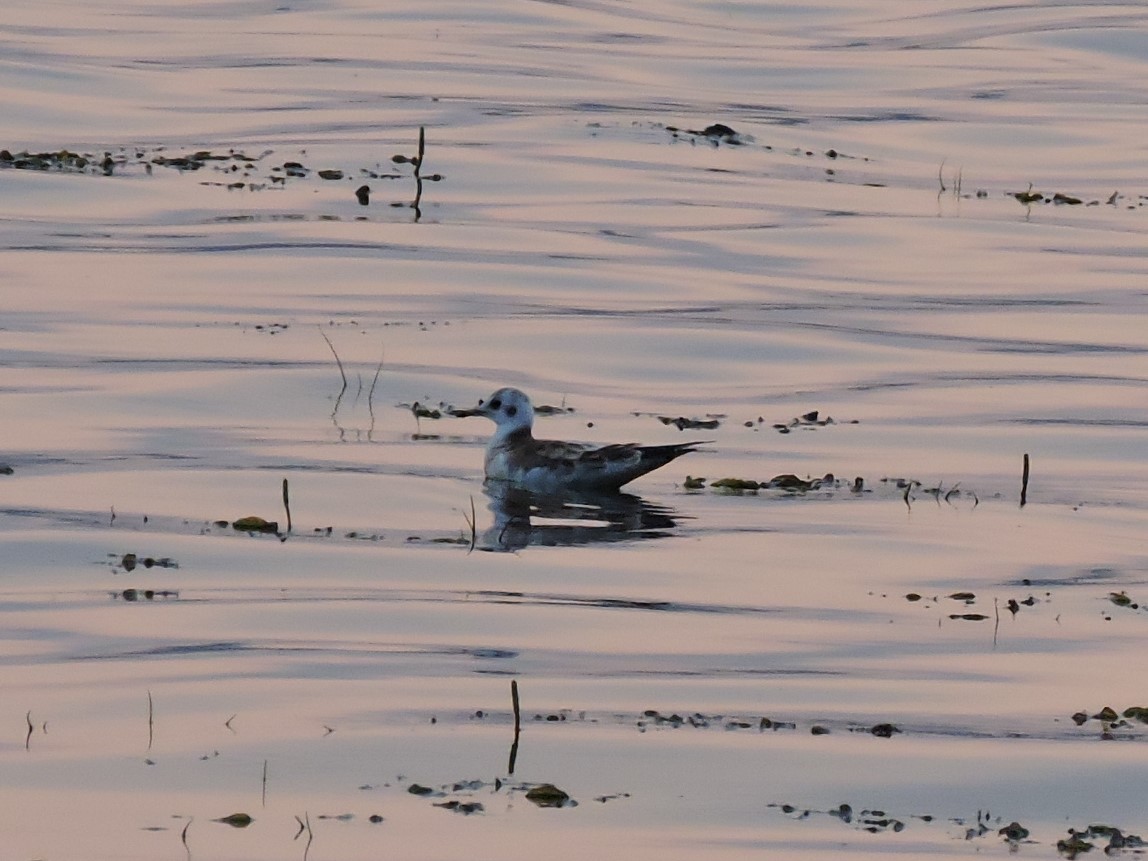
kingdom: Animalia
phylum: Chordata
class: Aves
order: Charadriiformes
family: Laridae
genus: Chroicocephalus
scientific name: Chroicocephalus ridibundus
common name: Black-headed gull
